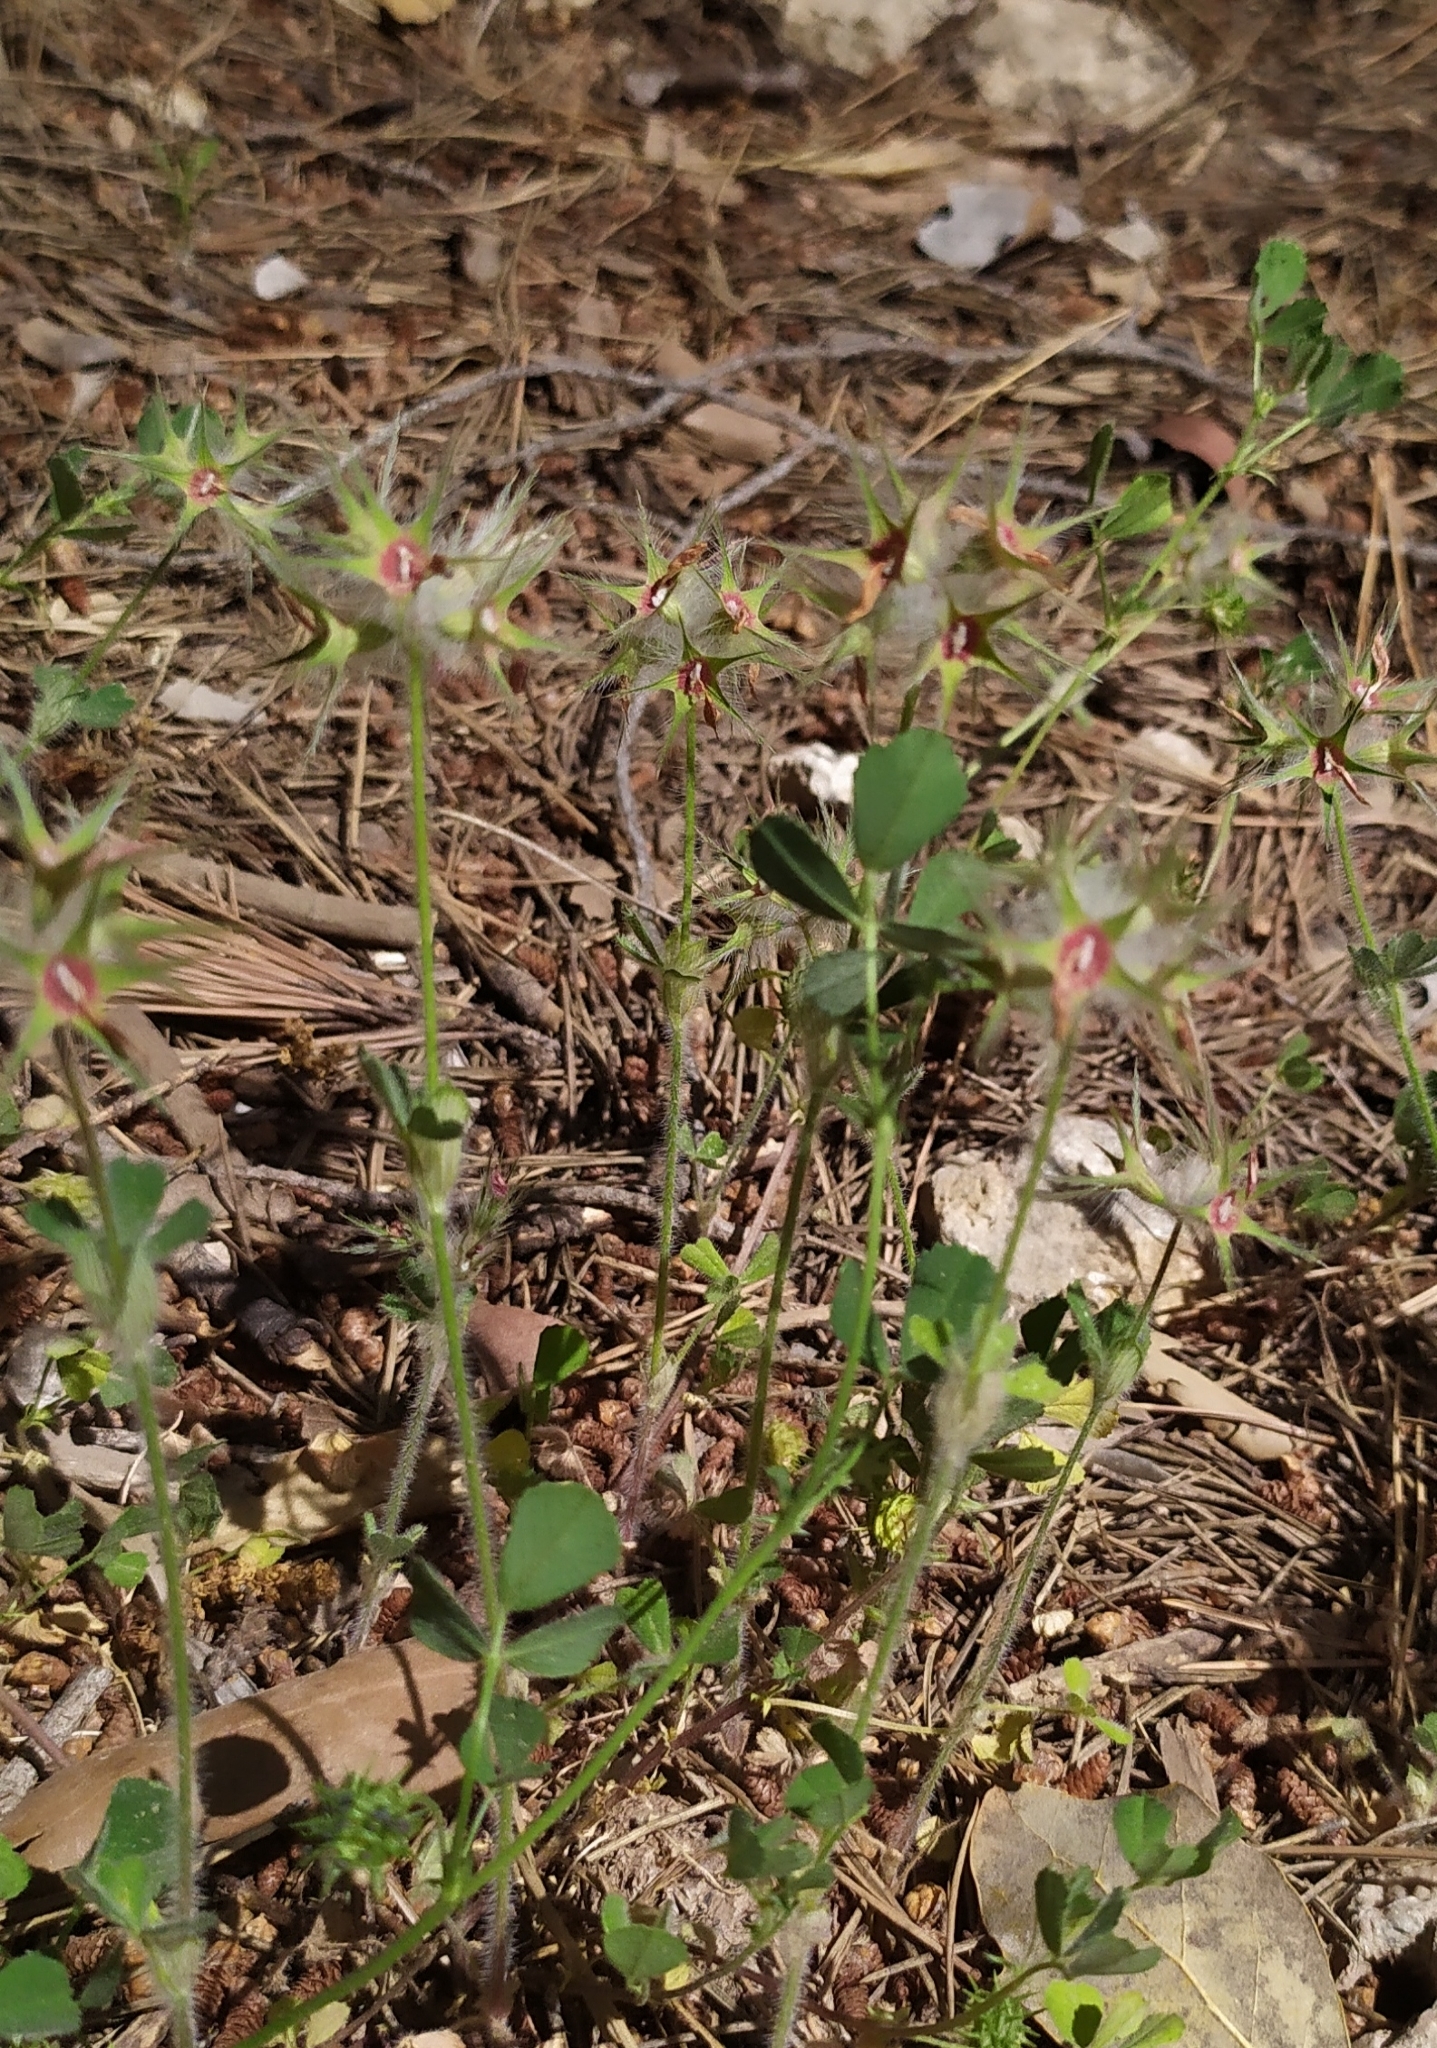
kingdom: Plantae
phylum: Tracheophyta
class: Magnoliopsida
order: Fabales
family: Fabaceae
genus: Trifolium
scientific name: Trifolium stellatum
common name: Starry clover
